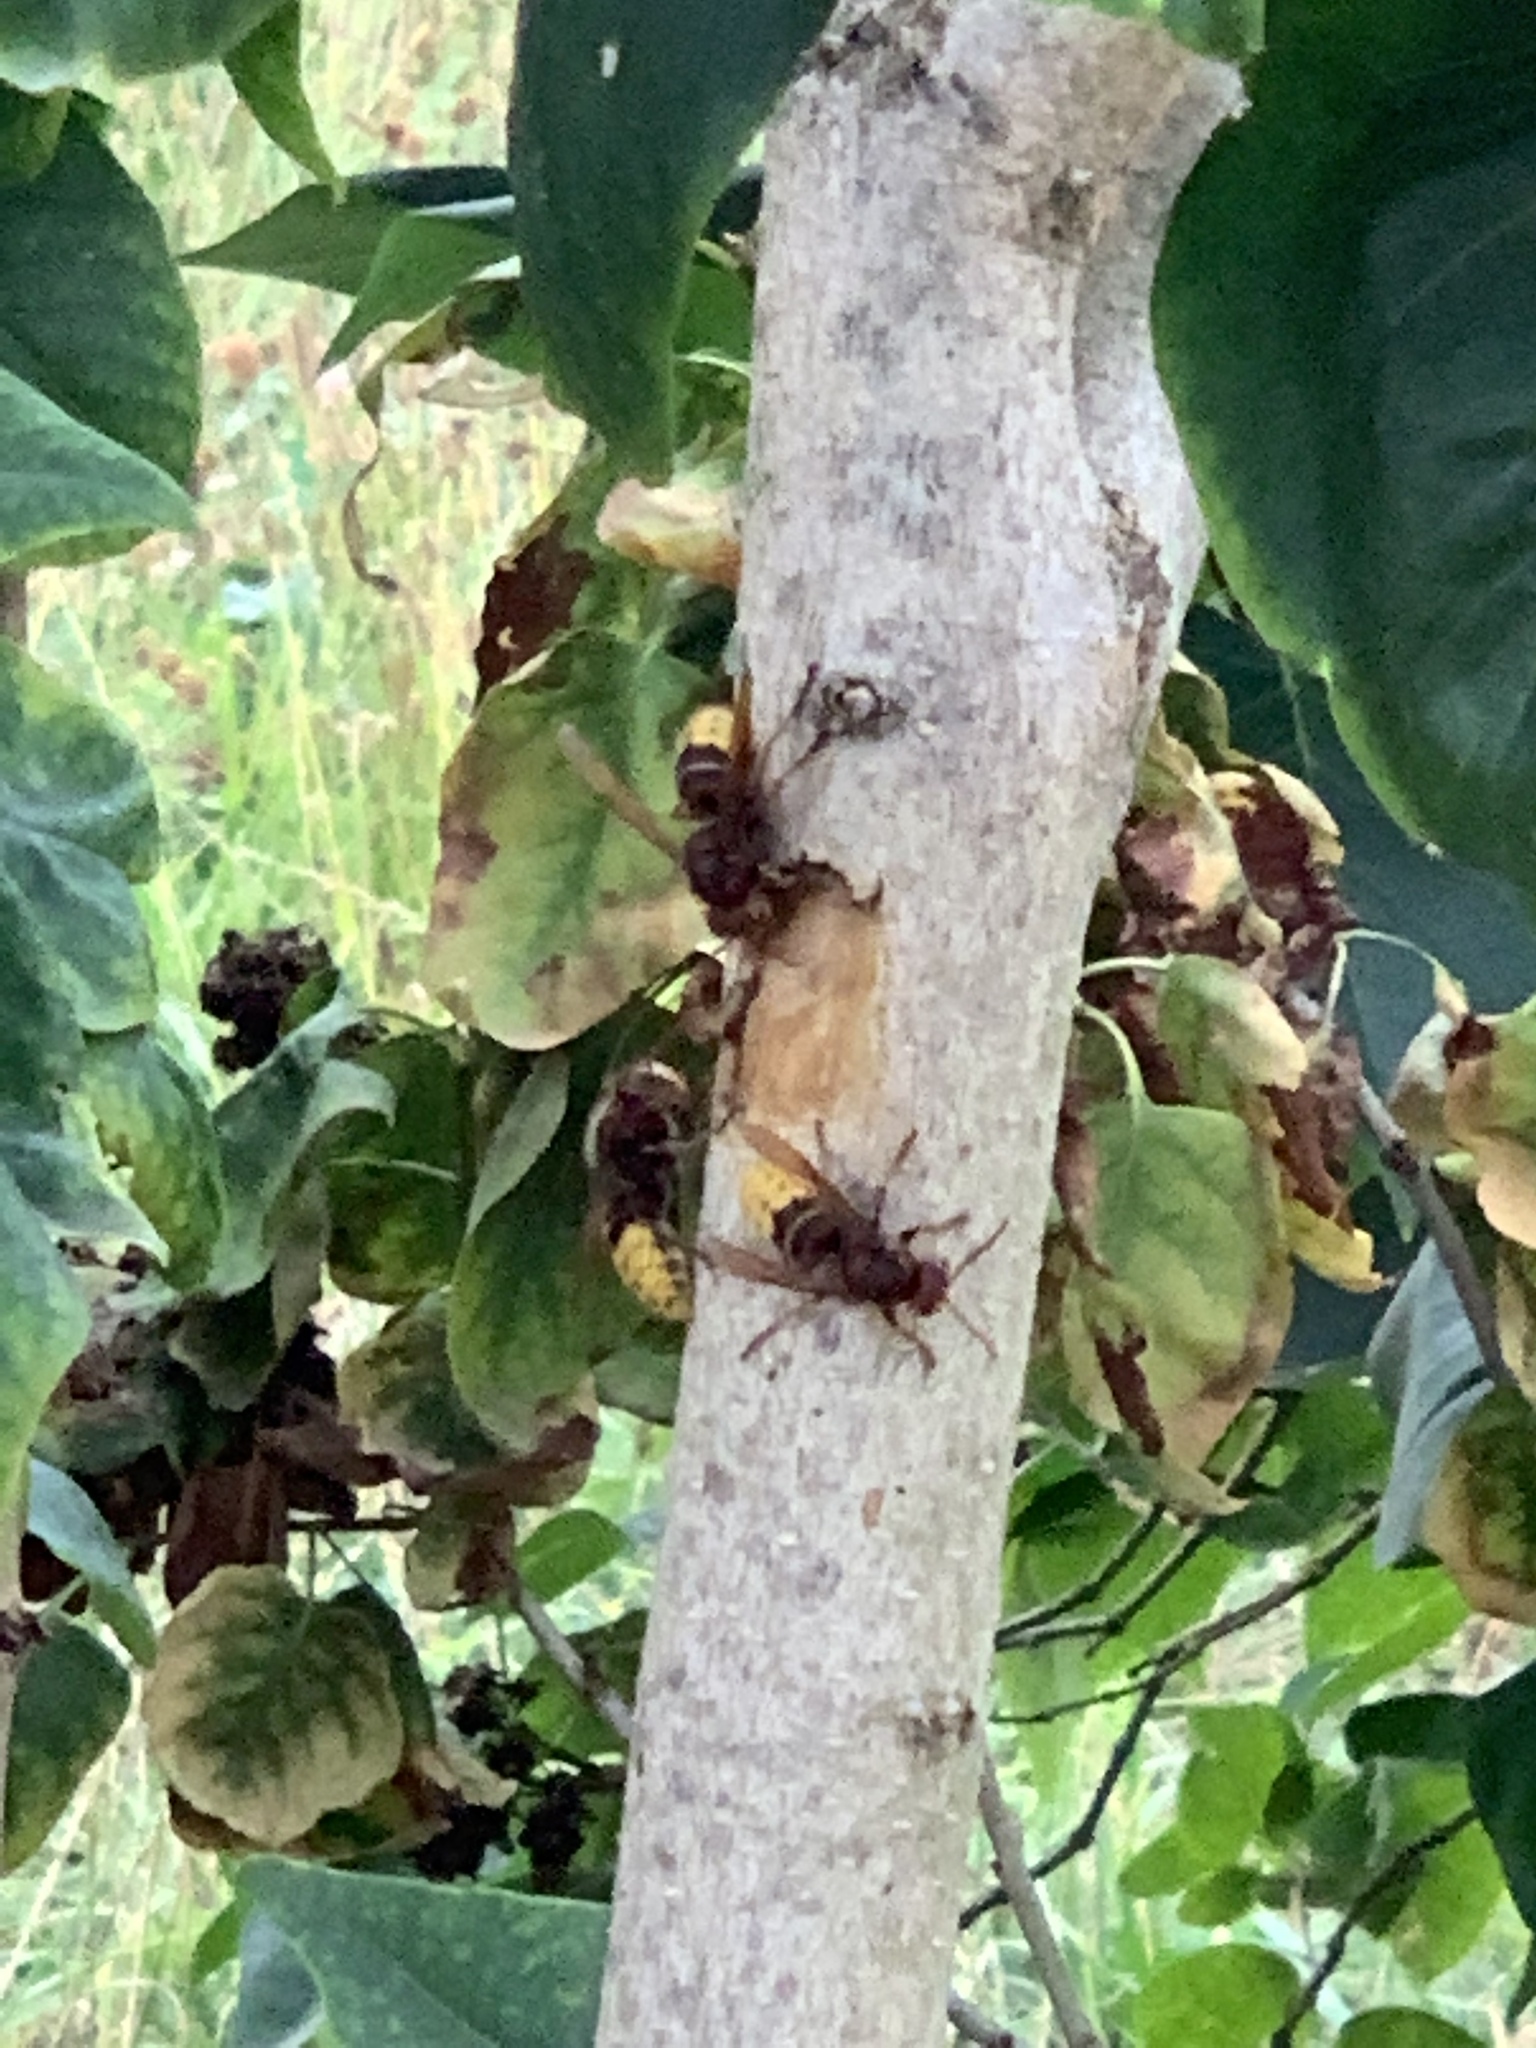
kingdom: Animalia
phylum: Arthropoda
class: Insecta
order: Hymenoptera
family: Vespidae
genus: Vespa
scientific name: Vespa crabro
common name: Hornet
